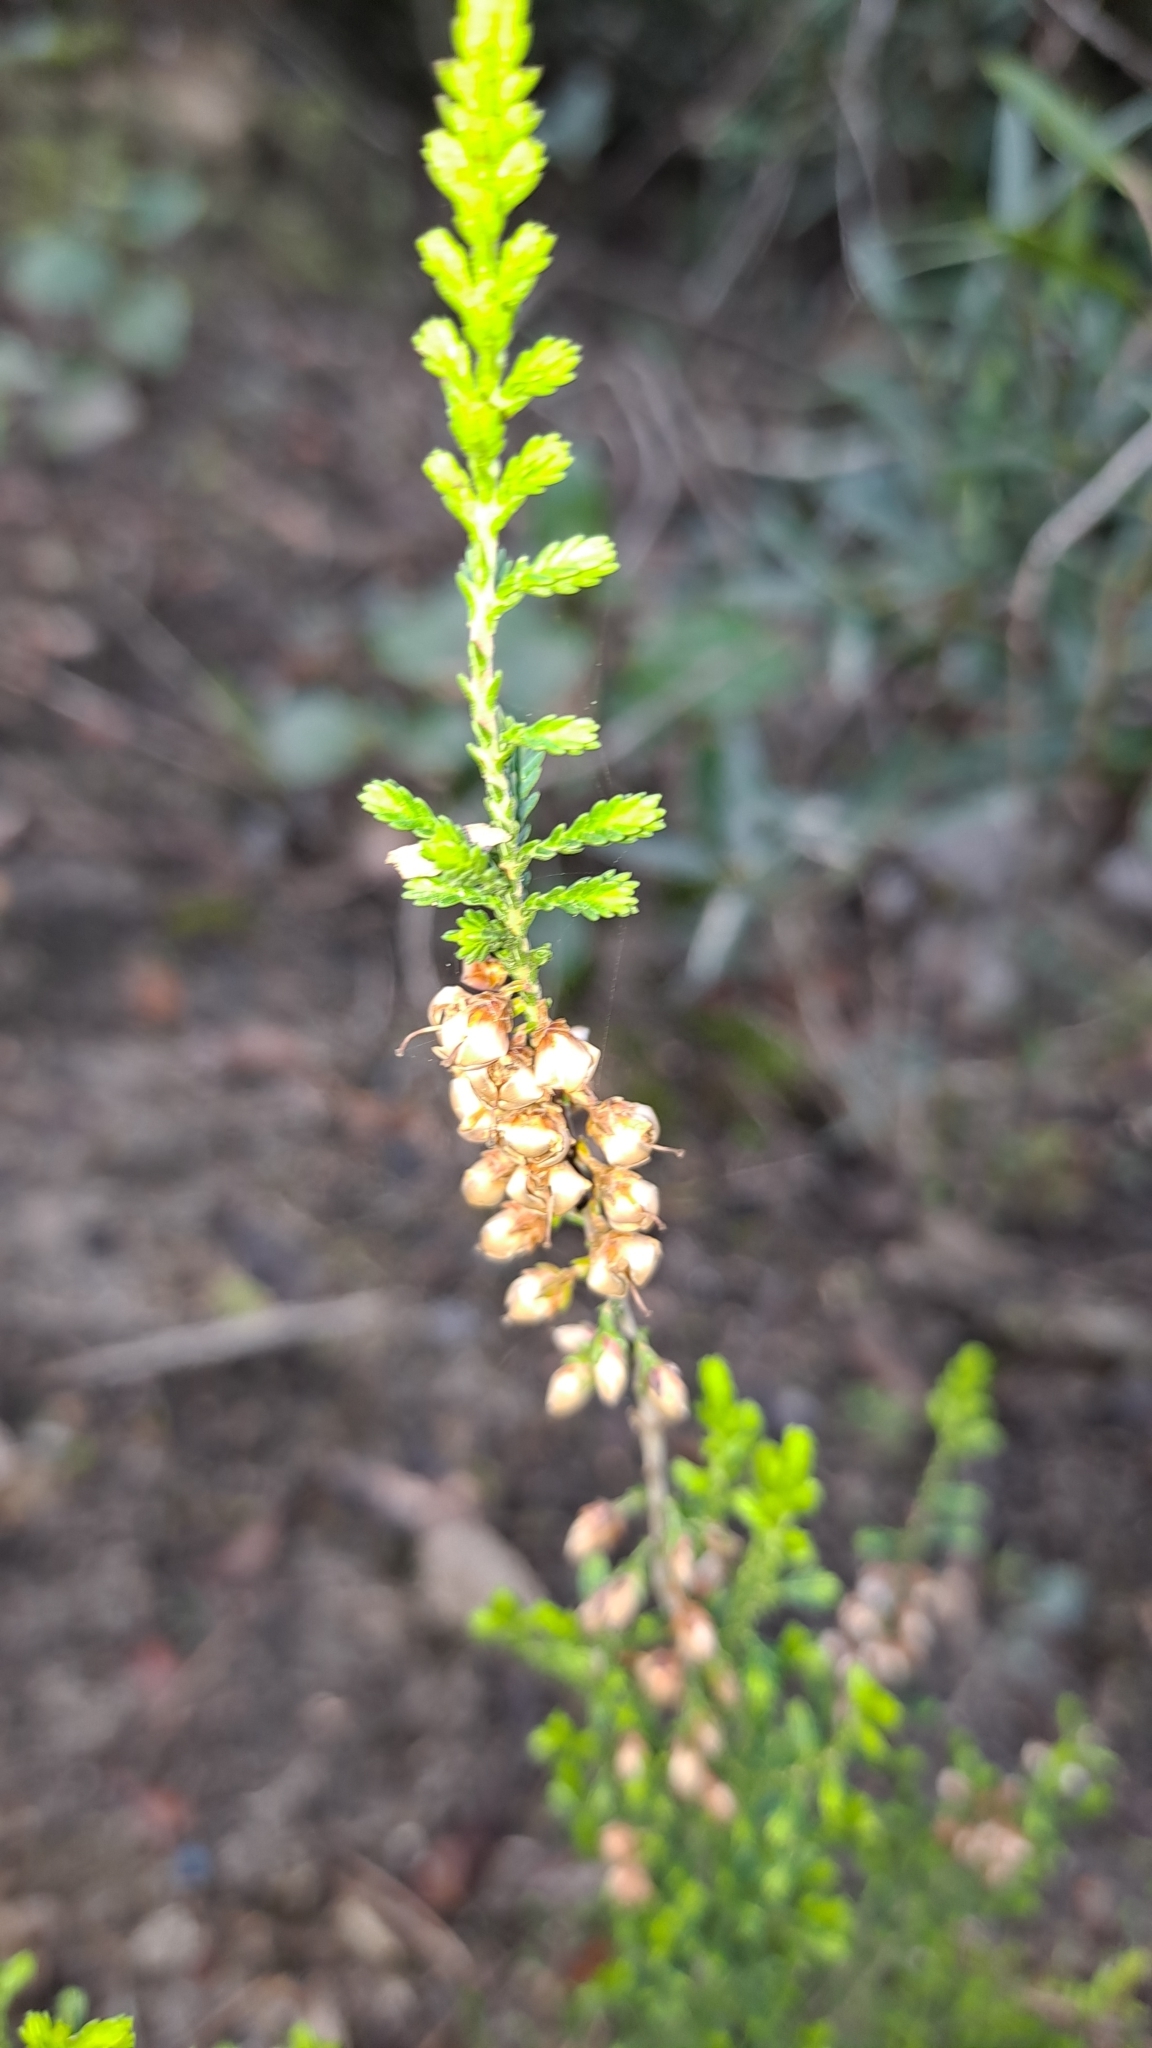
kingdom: Plantae
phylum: Tracheophyta
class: Magnoliopsida
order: Ericales
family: Ericaceae
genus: Calluna
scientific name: Calluna vulgaris
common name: Heather
